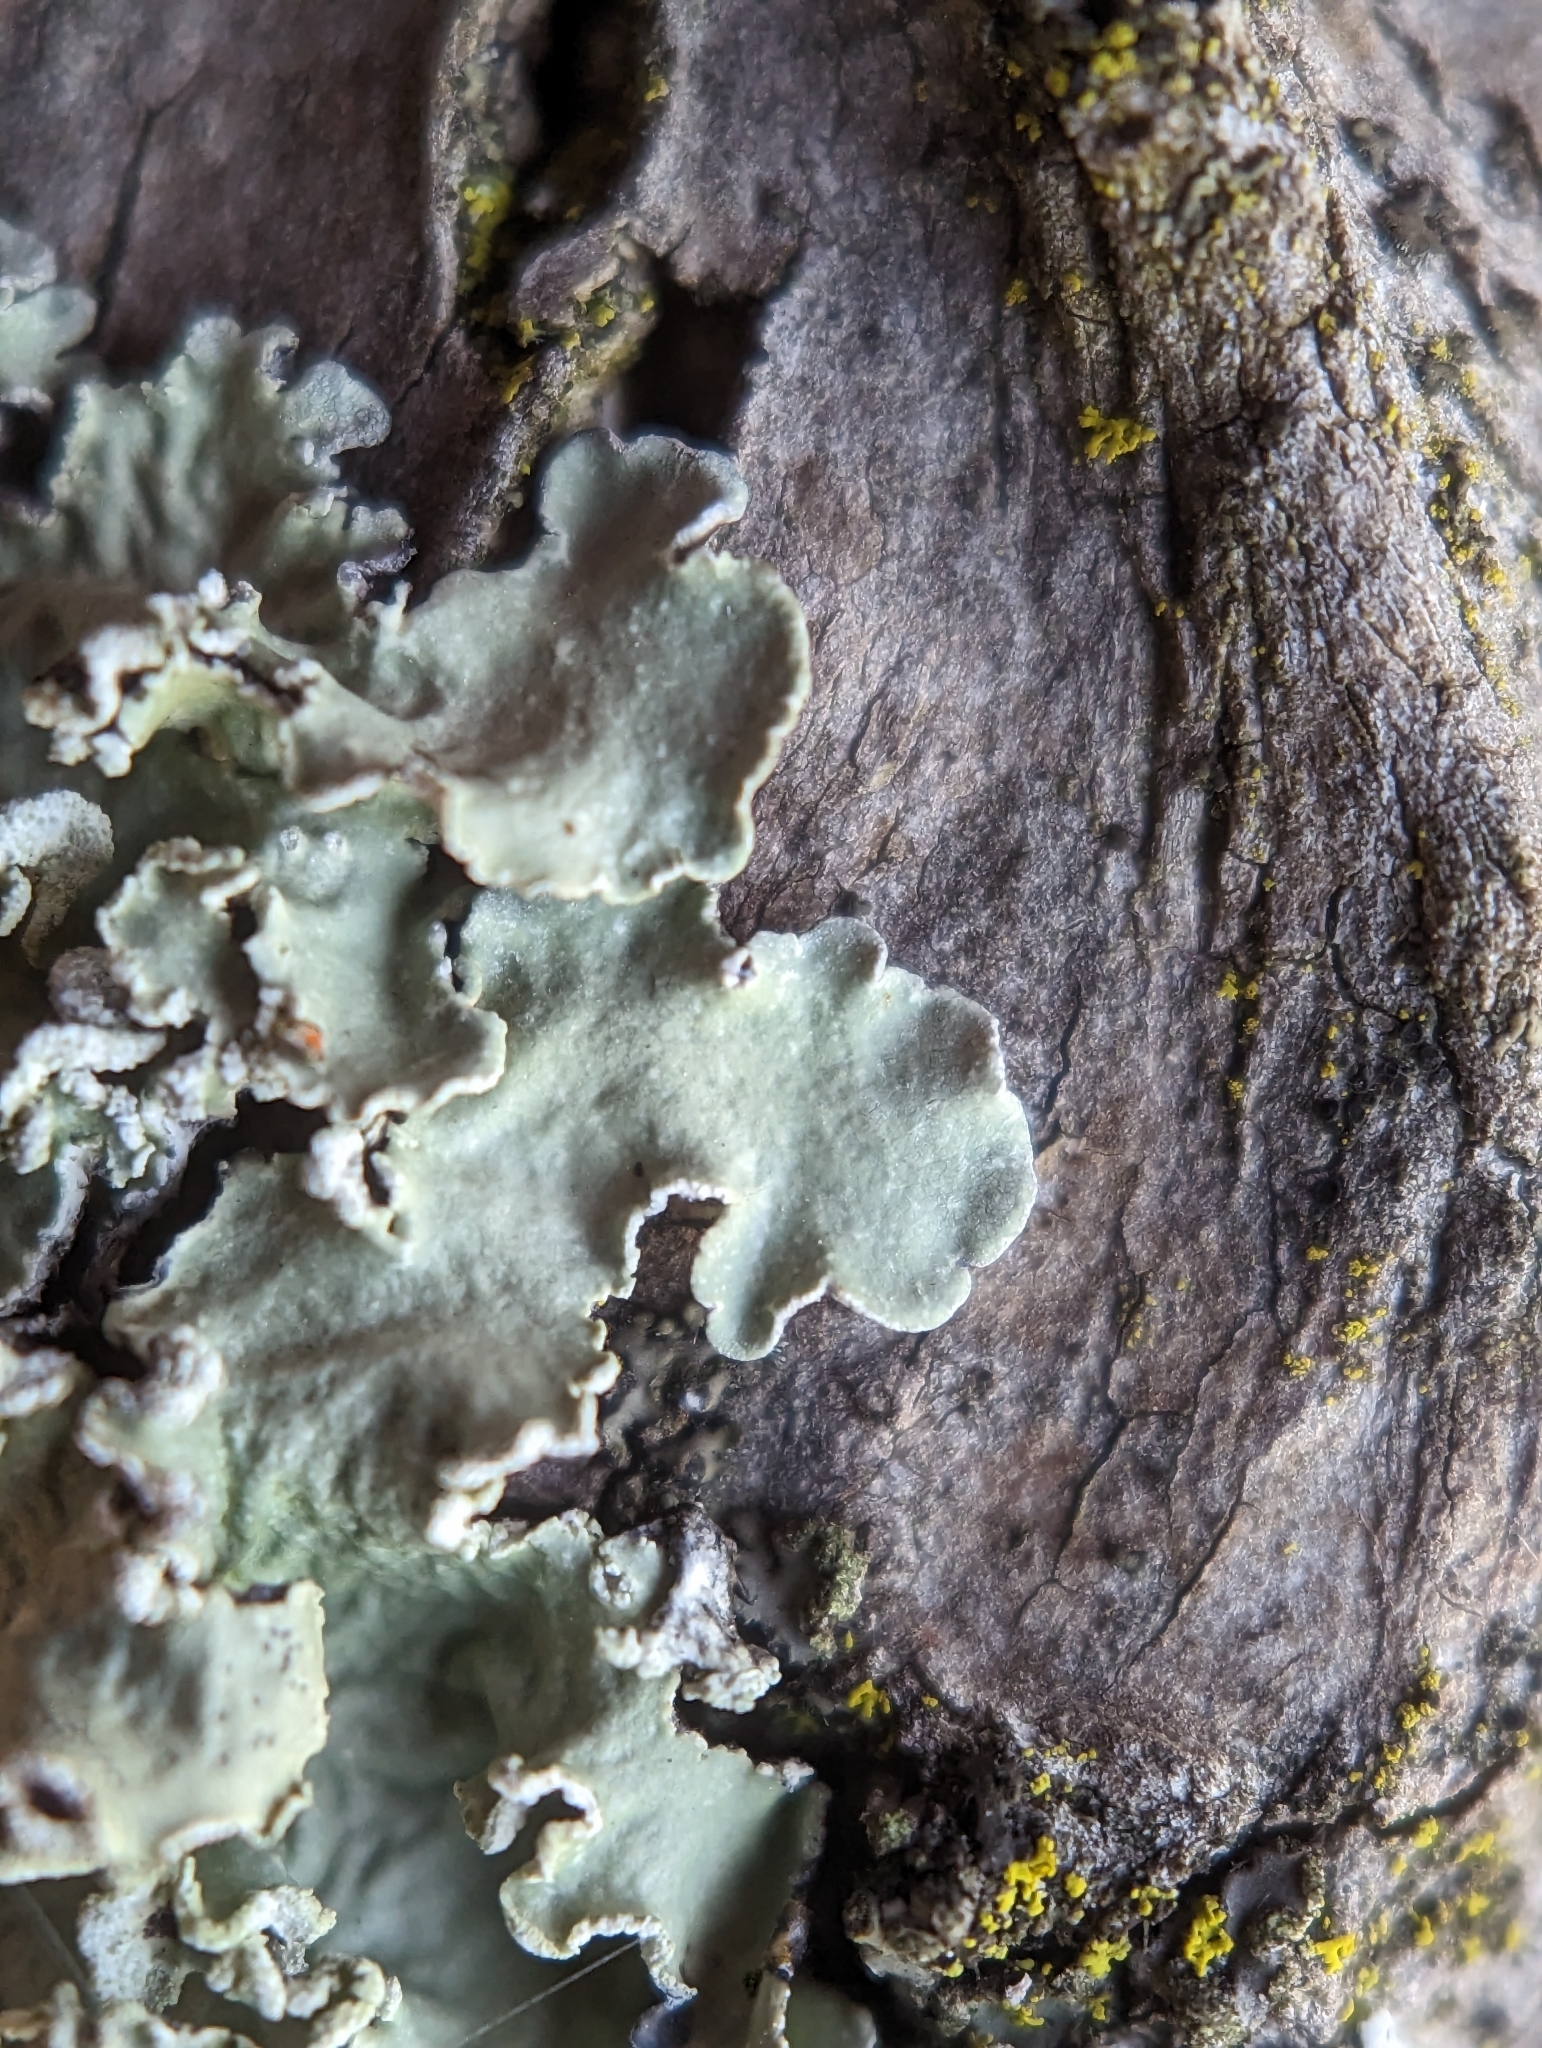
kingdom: Fungi
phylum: Ascomycota
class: Lecanoromycetes
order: Lecanorales
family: Parmeliaceae
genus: Flavopunctelia
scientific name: Flavopunctelia soredica
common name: Powder-edged speckled greenshield
